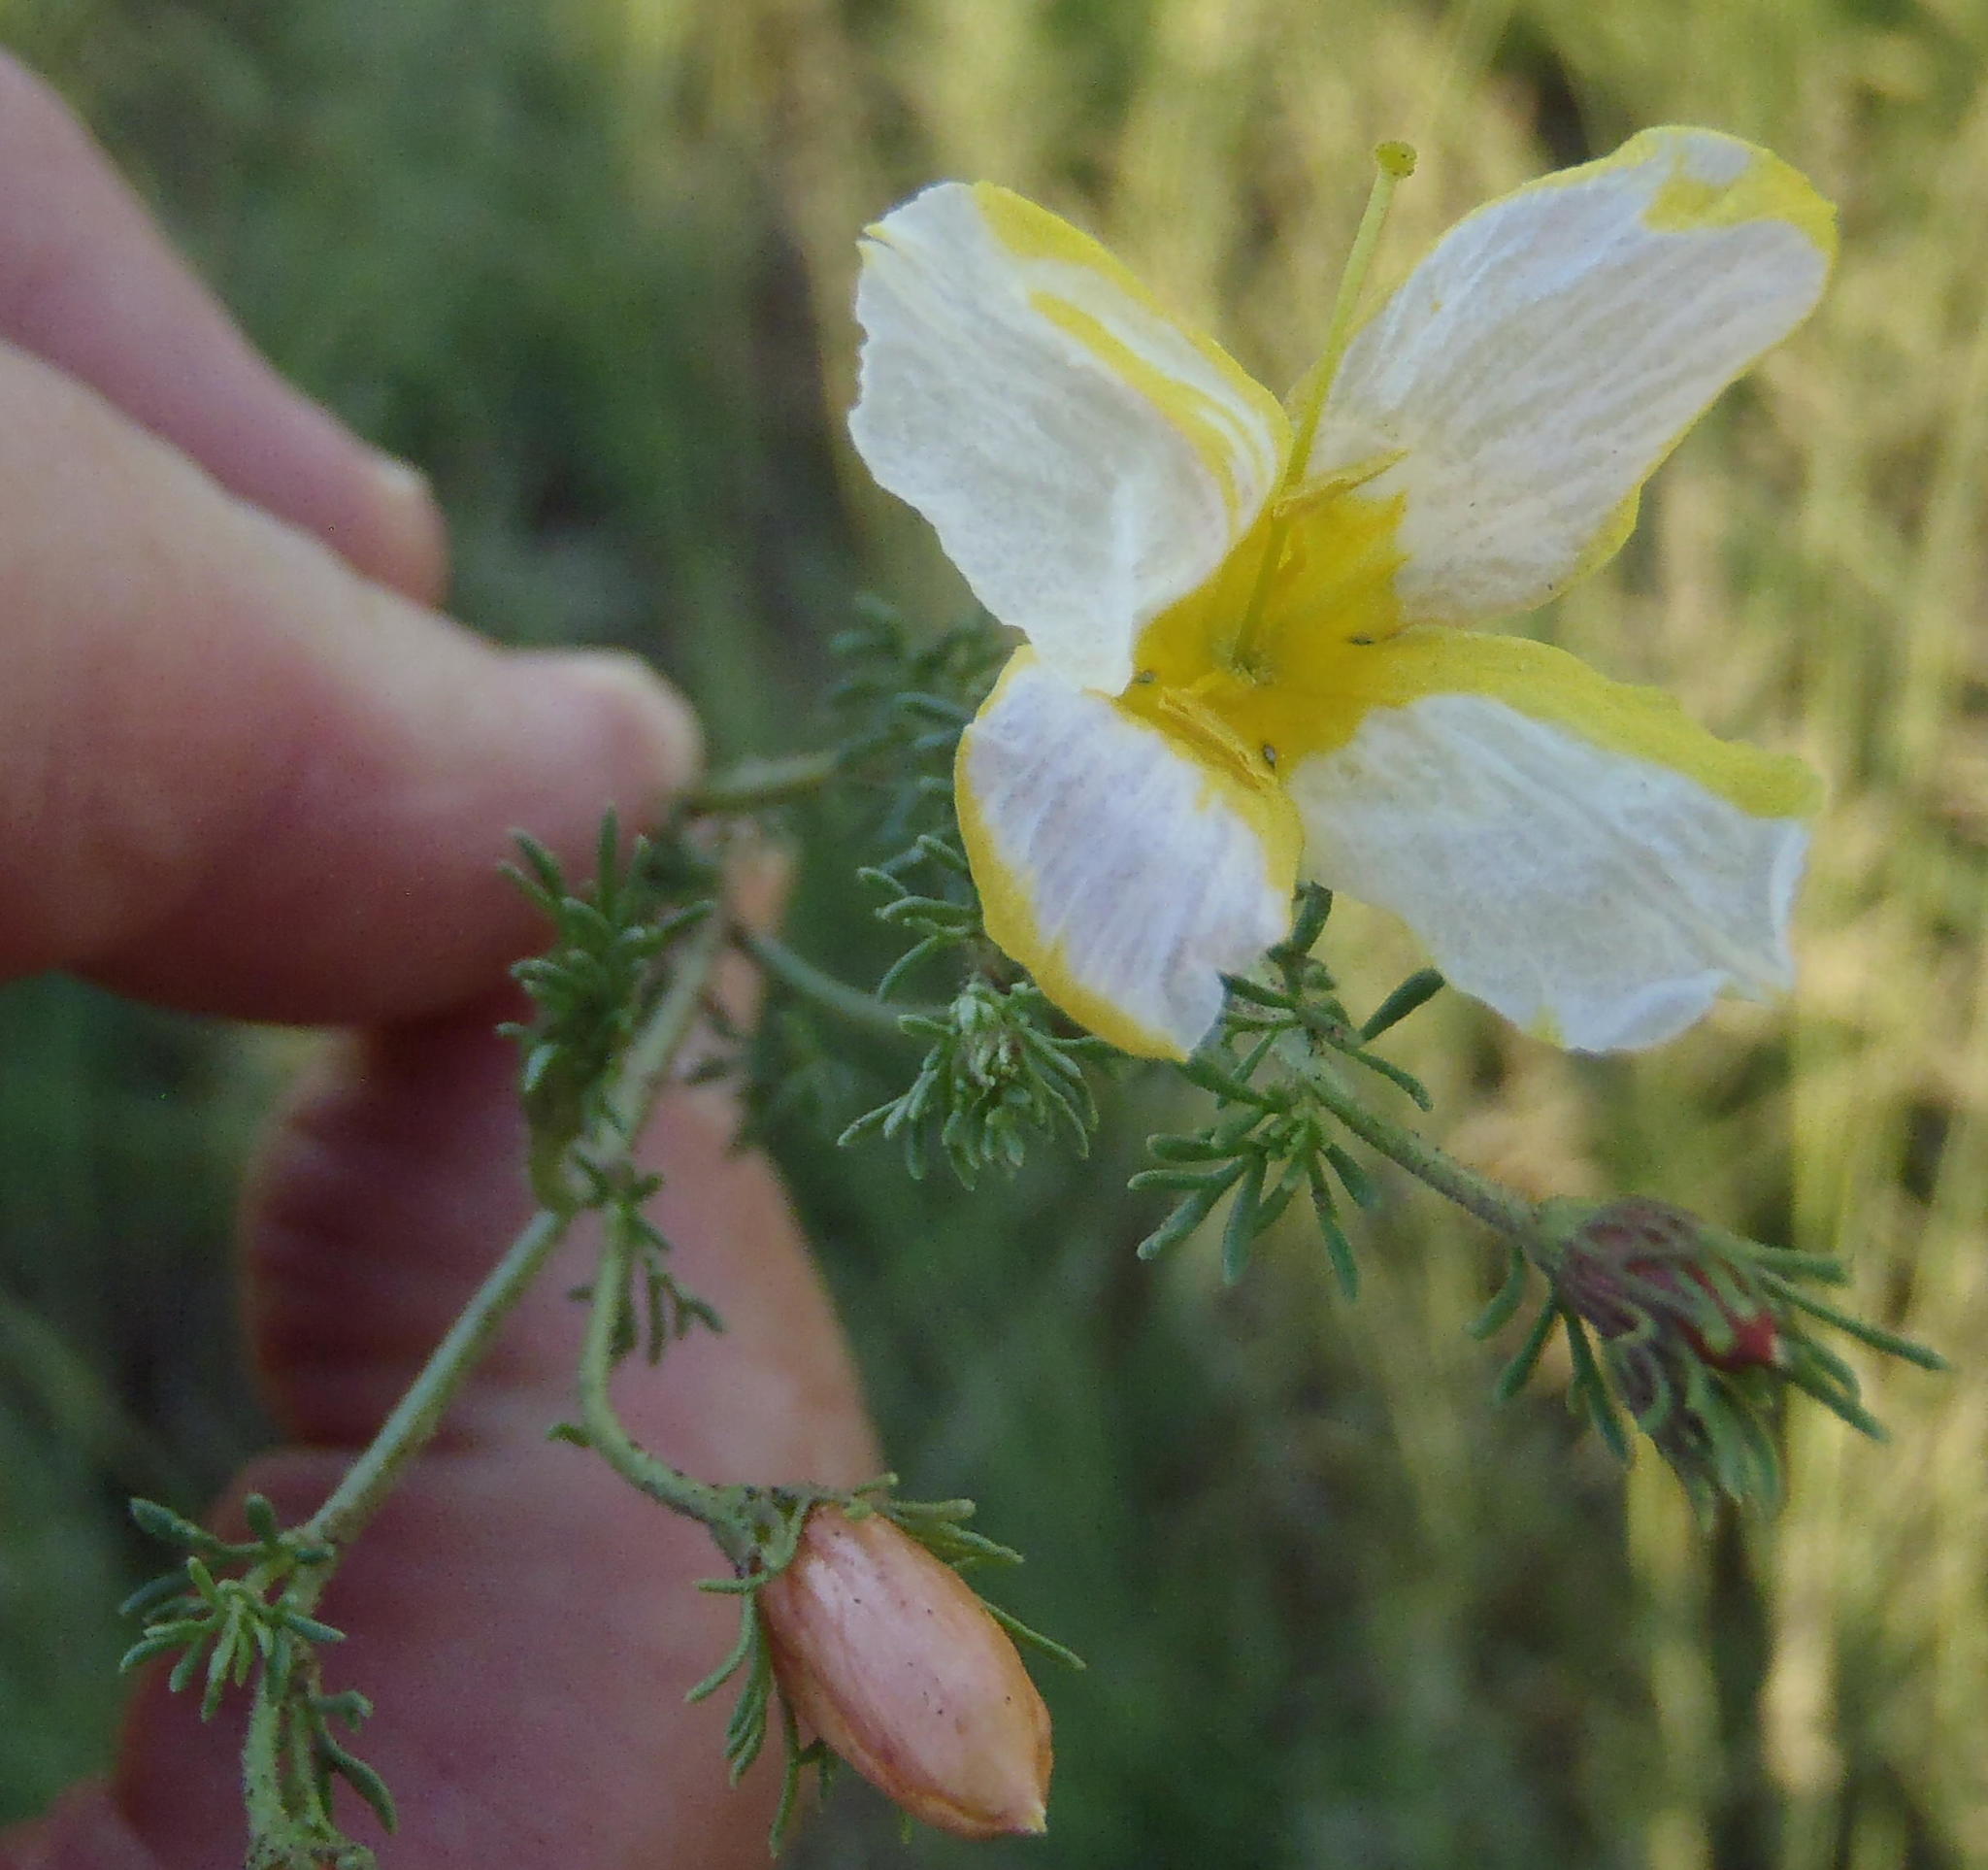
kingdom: Plantae
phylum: Tracheophyta
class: Magnoliopsida
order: Lamiales
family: Oleaceae
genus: Menodora
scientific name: Menodora africana
